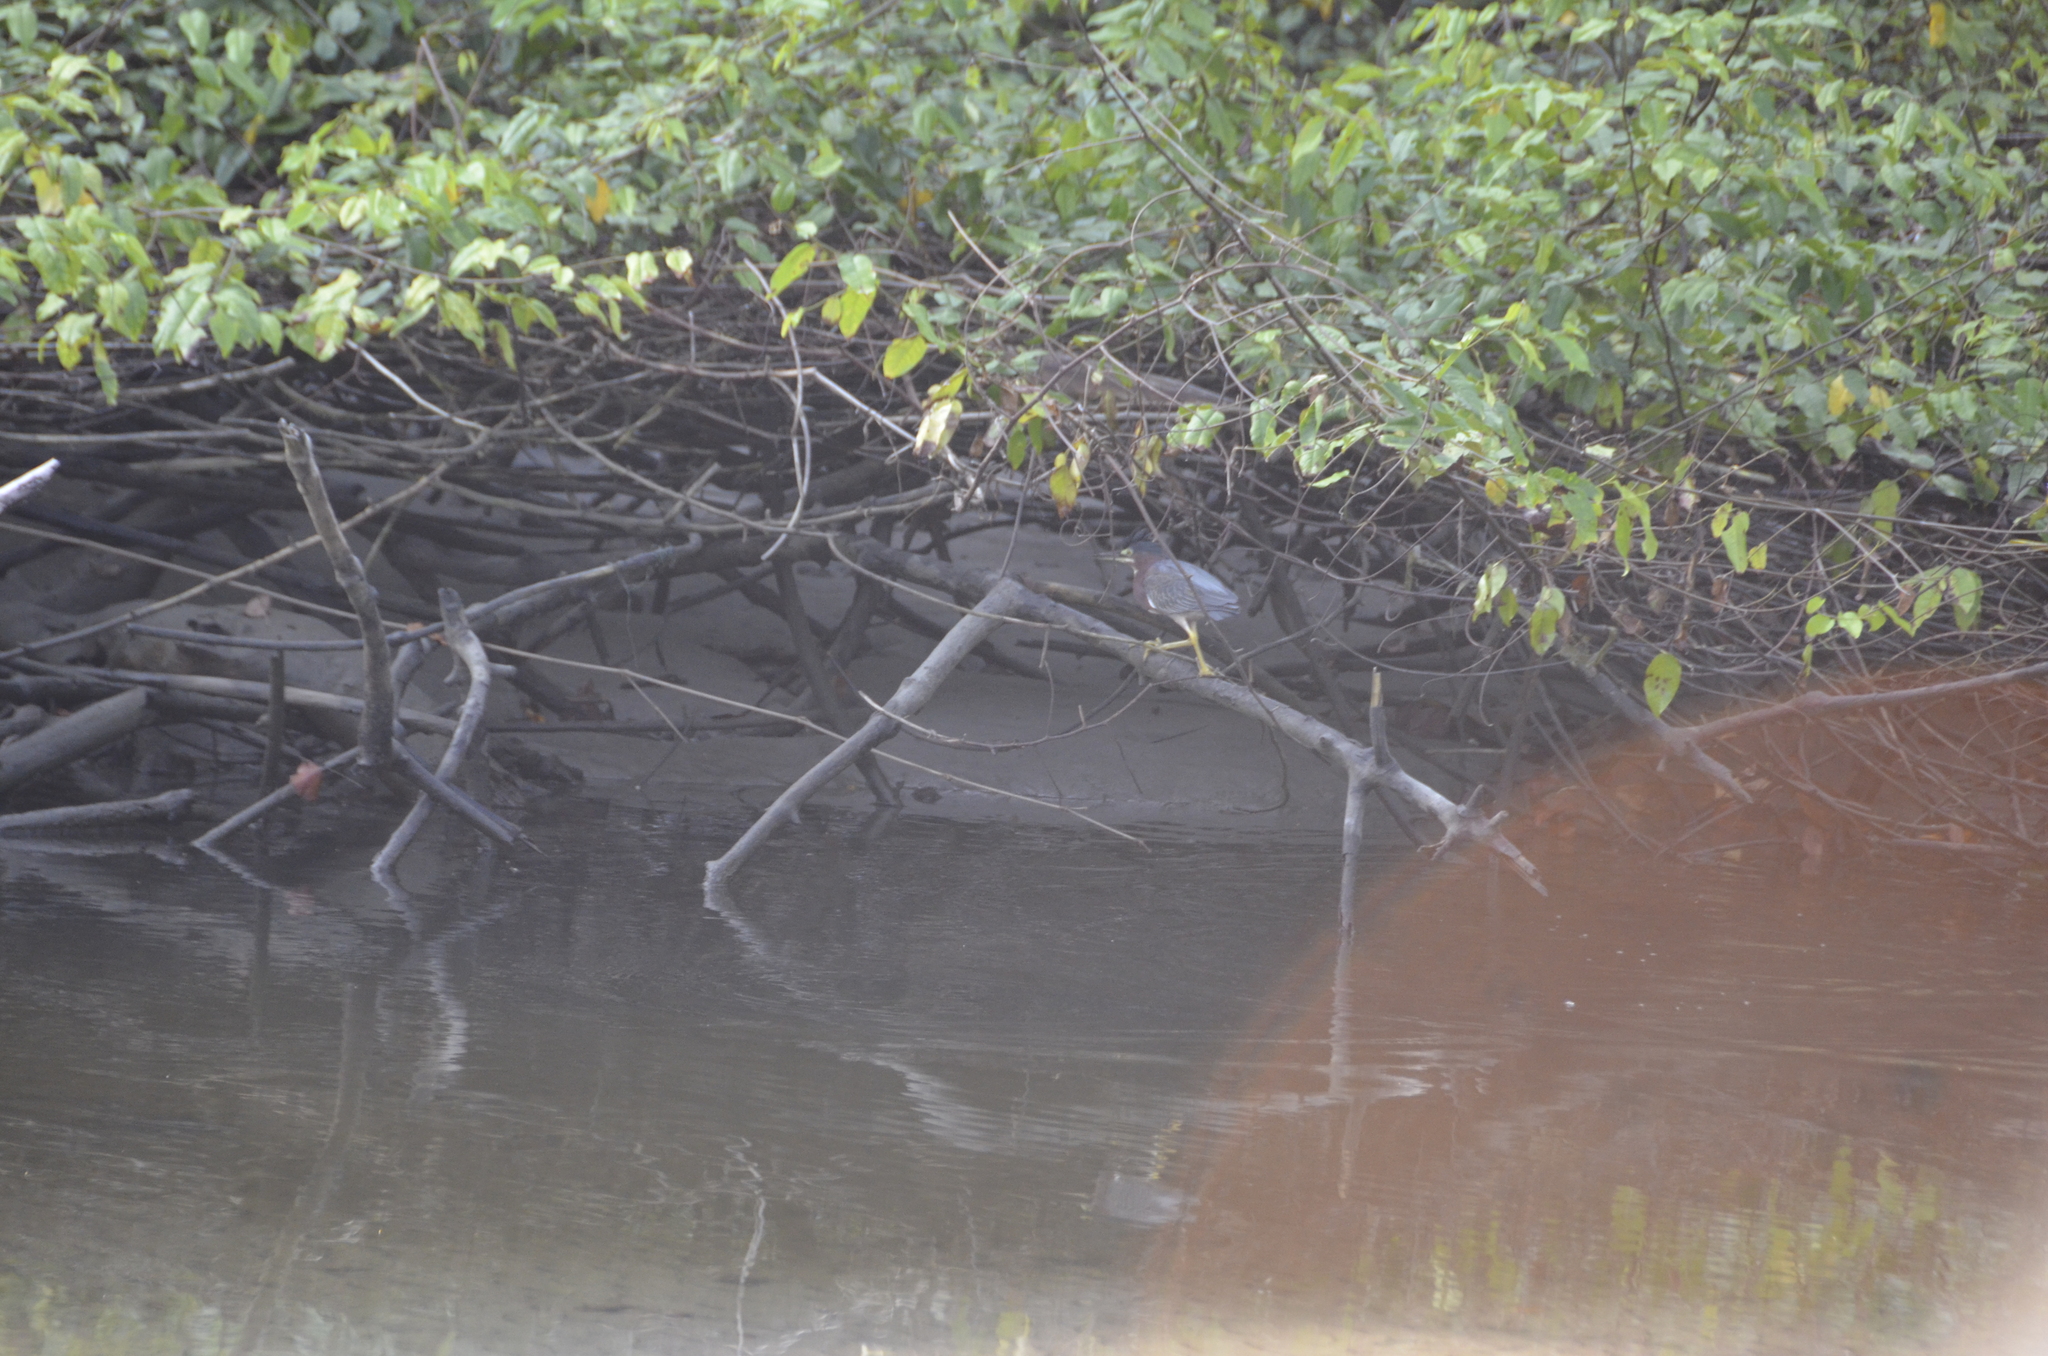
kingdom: Animalia
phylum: Chordata
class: Aves
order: Pelecaniformes
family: Ardeidae
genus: Butorides
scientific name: Butorides virescens
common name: Green heron
